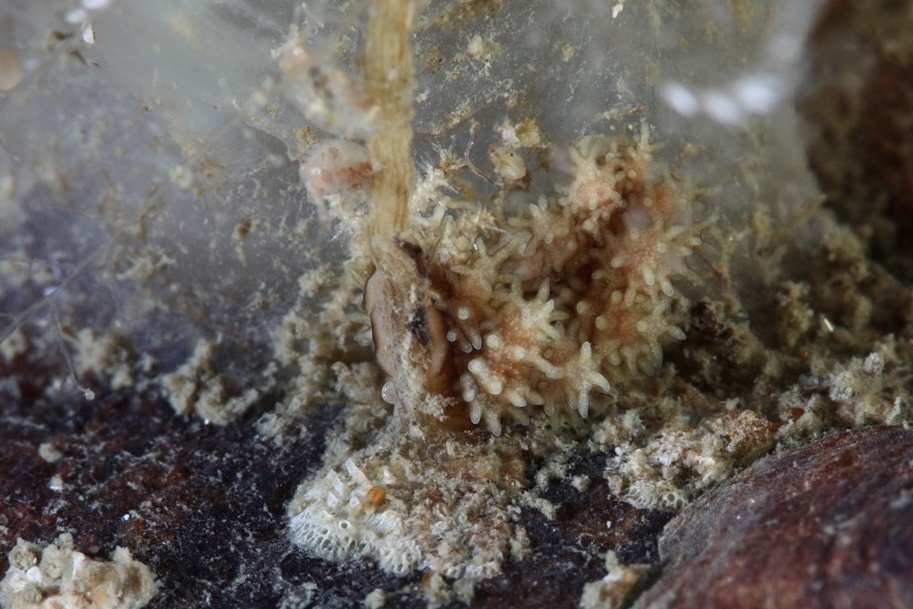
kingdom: Animalia
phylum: Mollusca
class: Gastropoda
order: Nudibranchia
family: Dotidae
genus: Doto
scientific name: Doto hystrix
